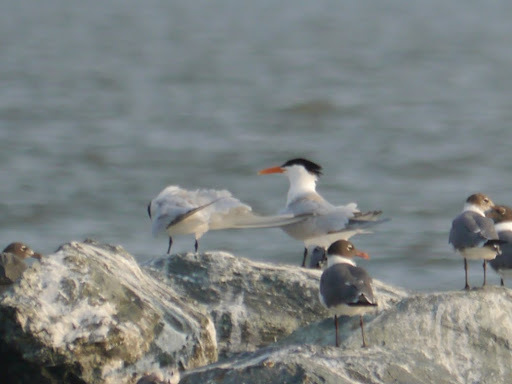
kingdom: Animalia
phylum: Chordata
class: Aves
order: Charadriiformes
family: Laridae
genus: Thalasseus
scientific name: Thalasseus maximus
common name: Royal tern
